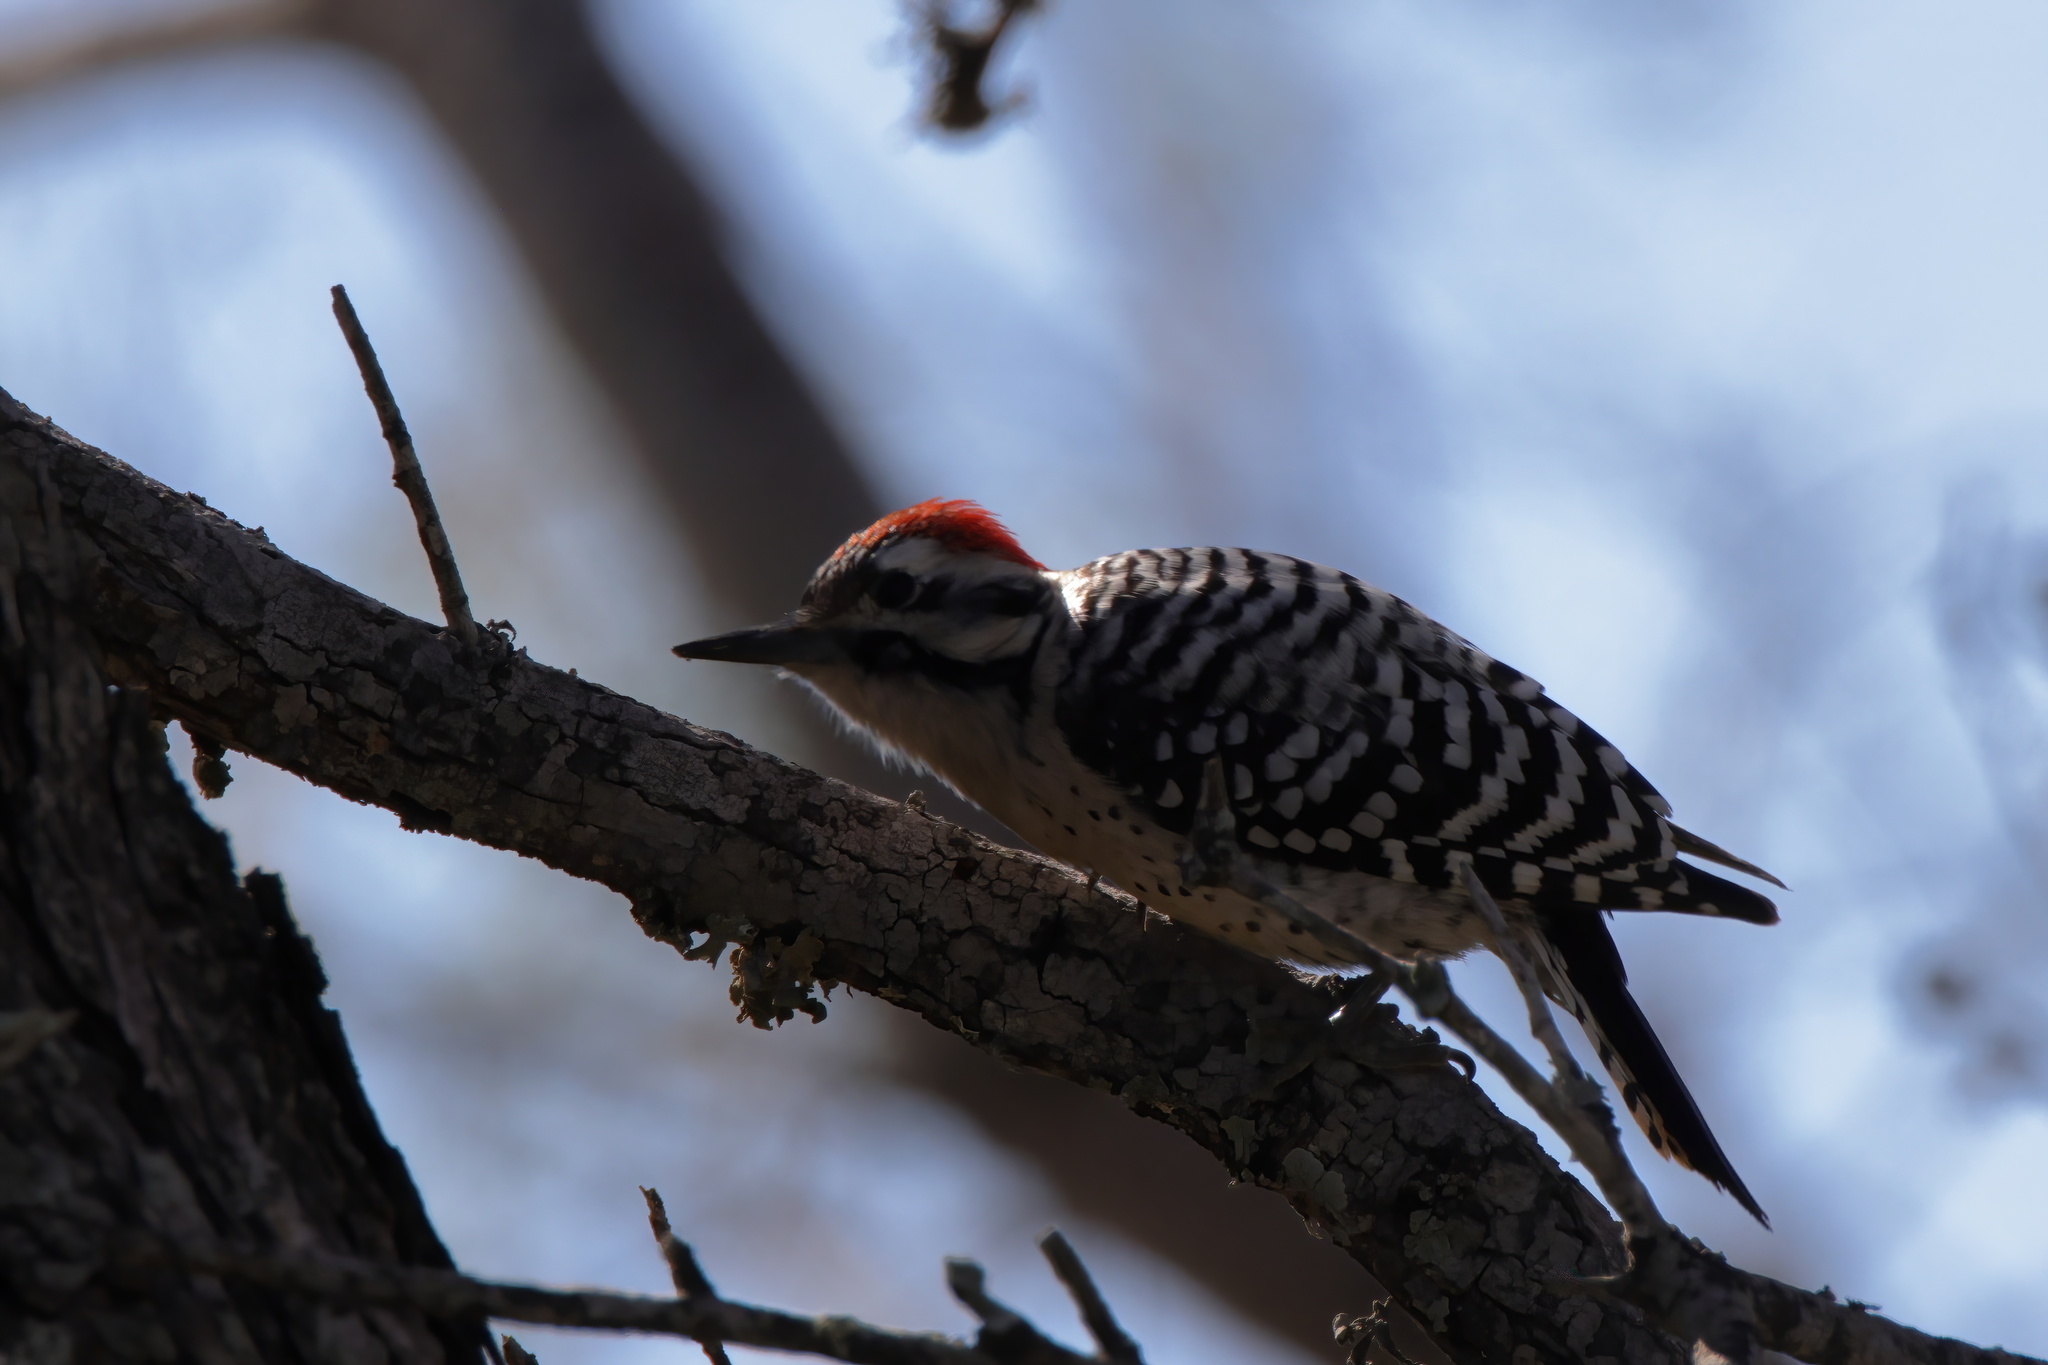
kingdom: Animalia
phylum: Chordata
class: Aves
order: Piciformes
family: Picidae
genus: Dryobates
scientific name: Dryobates scalaris
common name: Ladder-backed woodpecker
